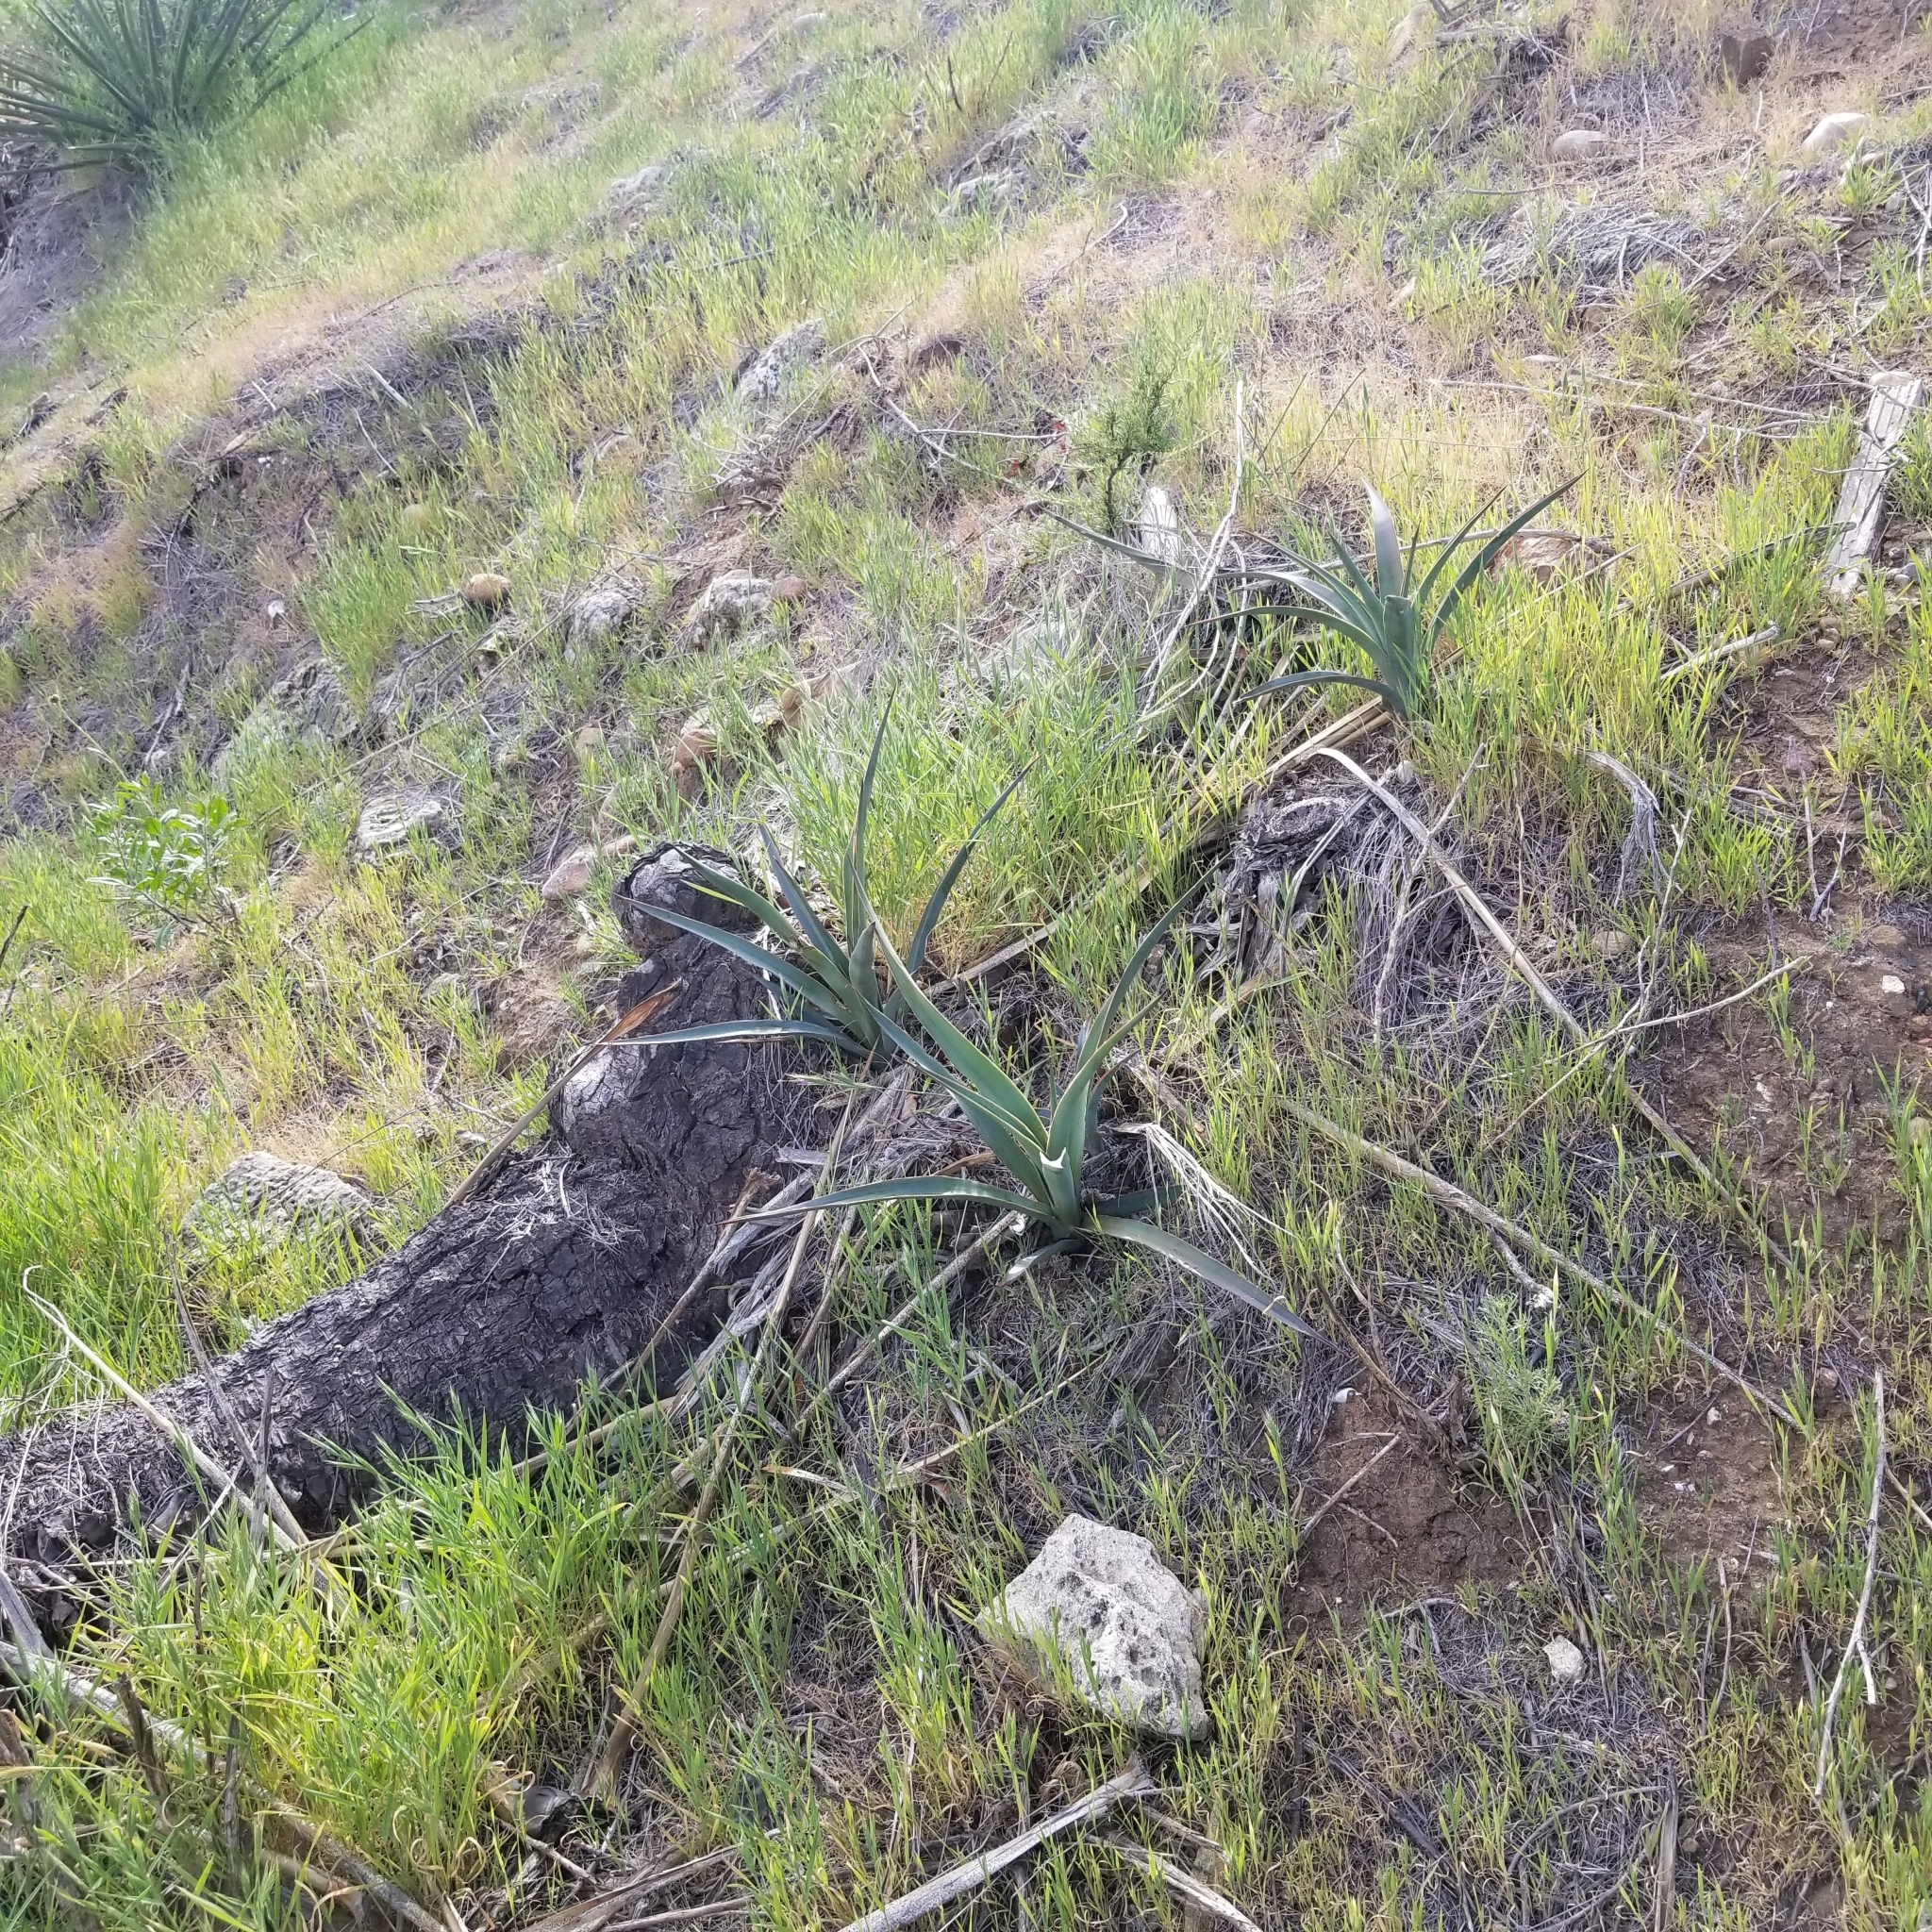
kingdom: Plantae
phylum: Tracheophyta
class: Liliopsida
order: Asparagales
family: Asparagaceae
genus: Yucca
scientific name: Yucca schidigera
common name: Mojave yucca
